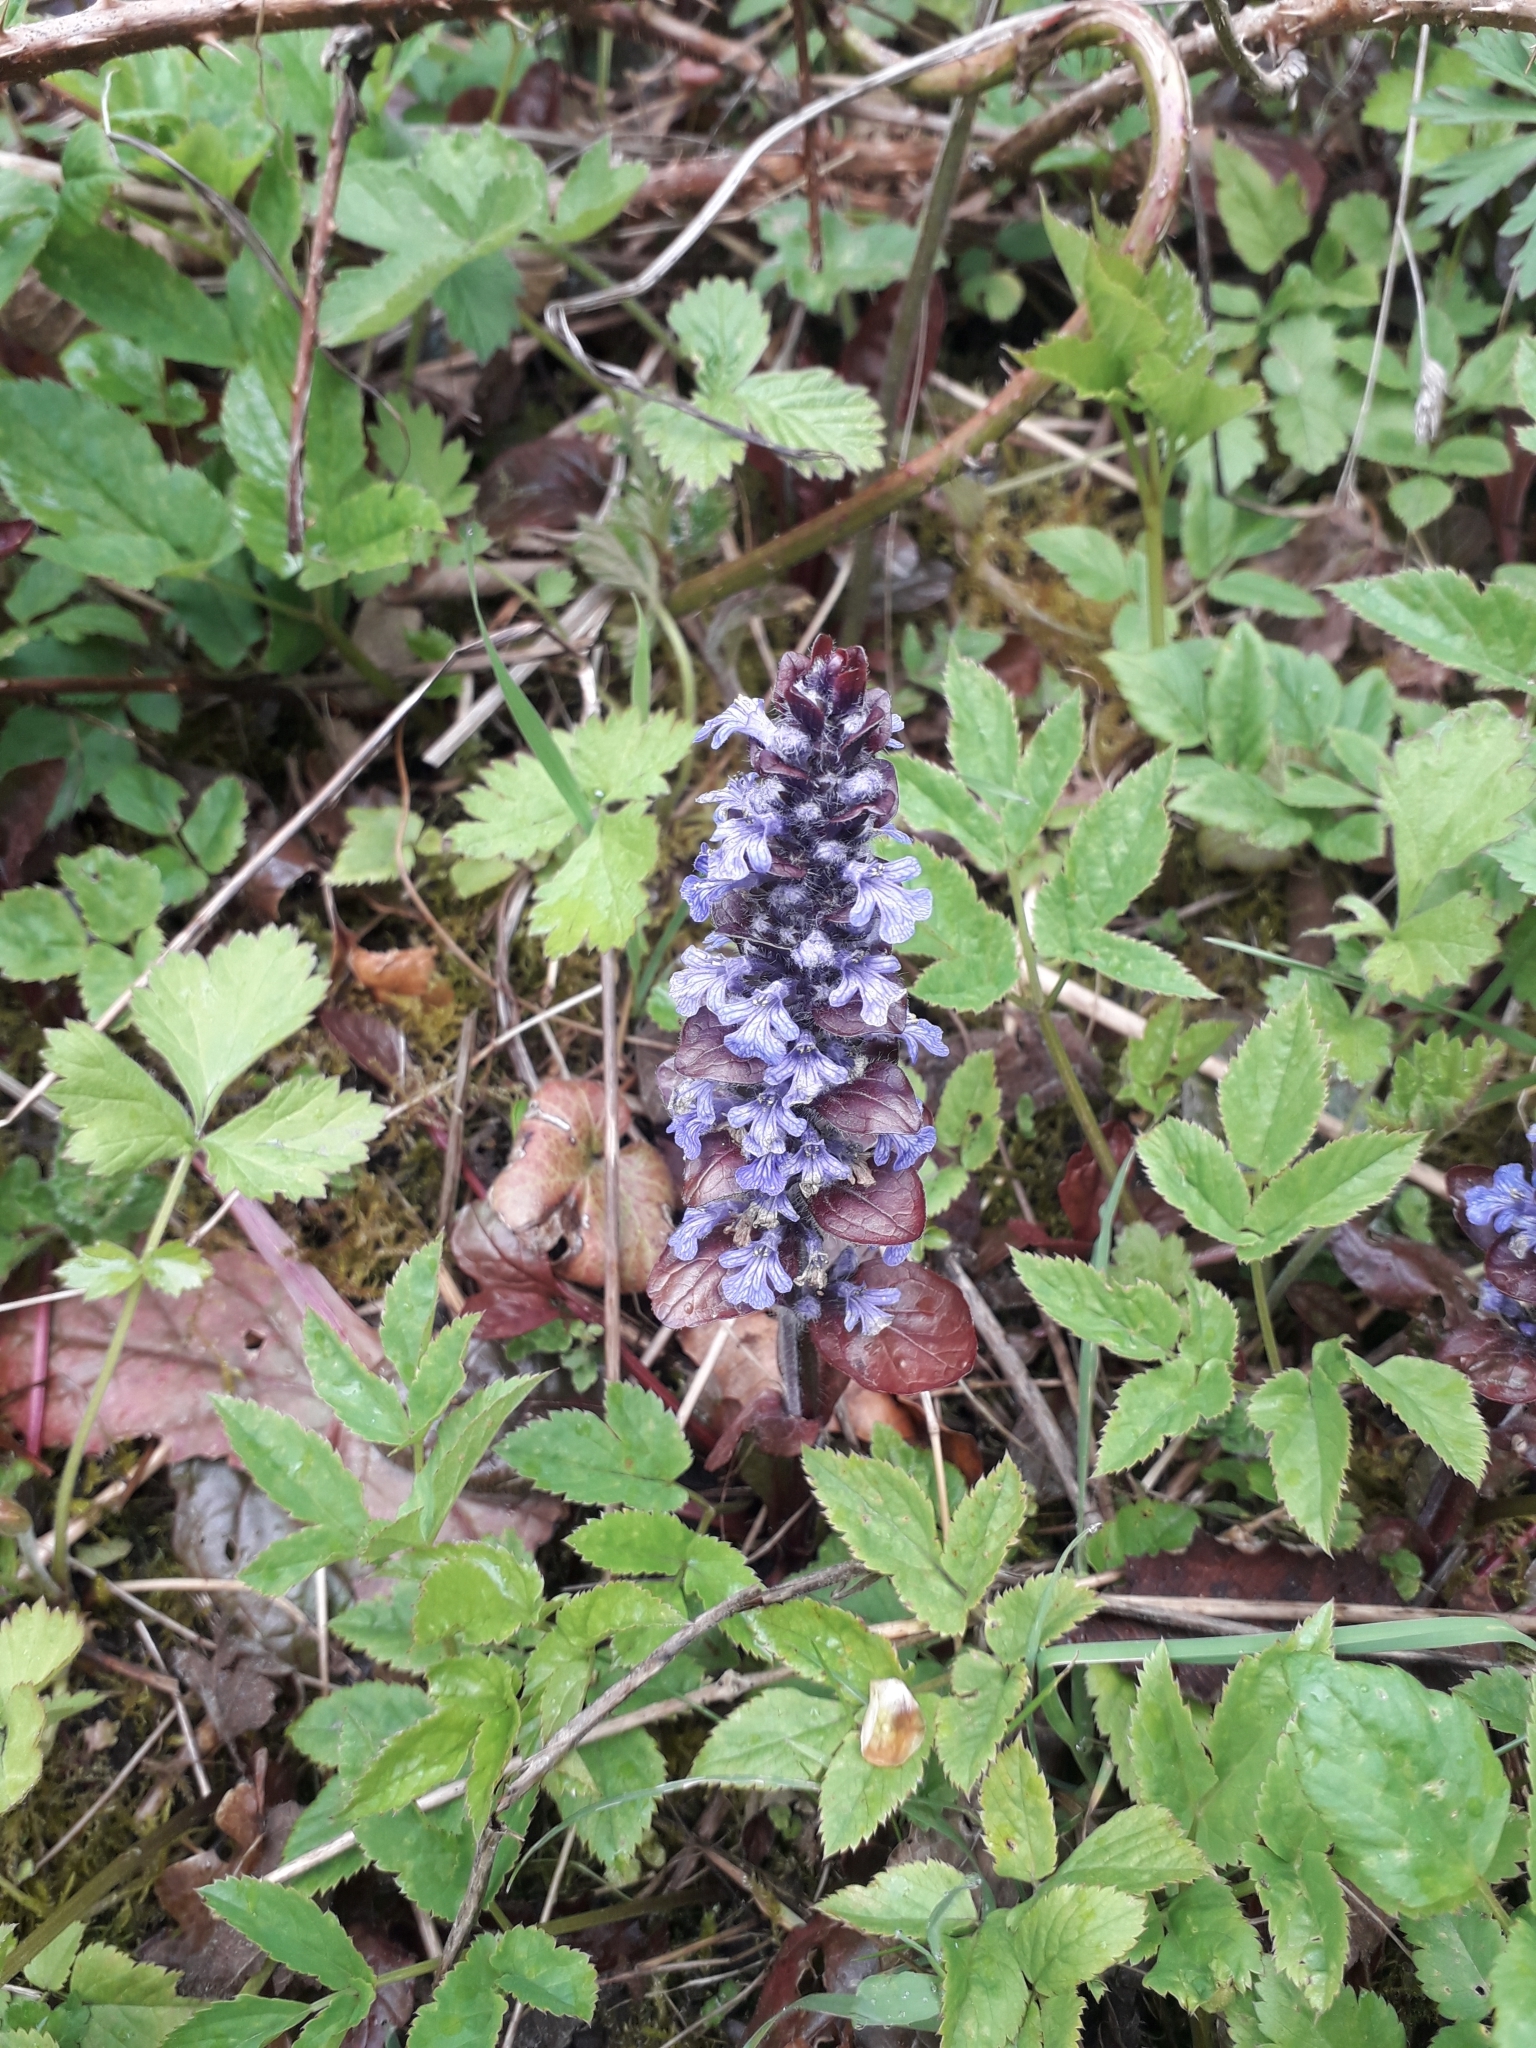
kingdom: Plantae
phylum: Tracheophyta
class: Magnoliopsida
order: Lamiales
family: Lamiaceae
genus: Ajuga
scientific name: Ajuga reptans
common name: Bugle
